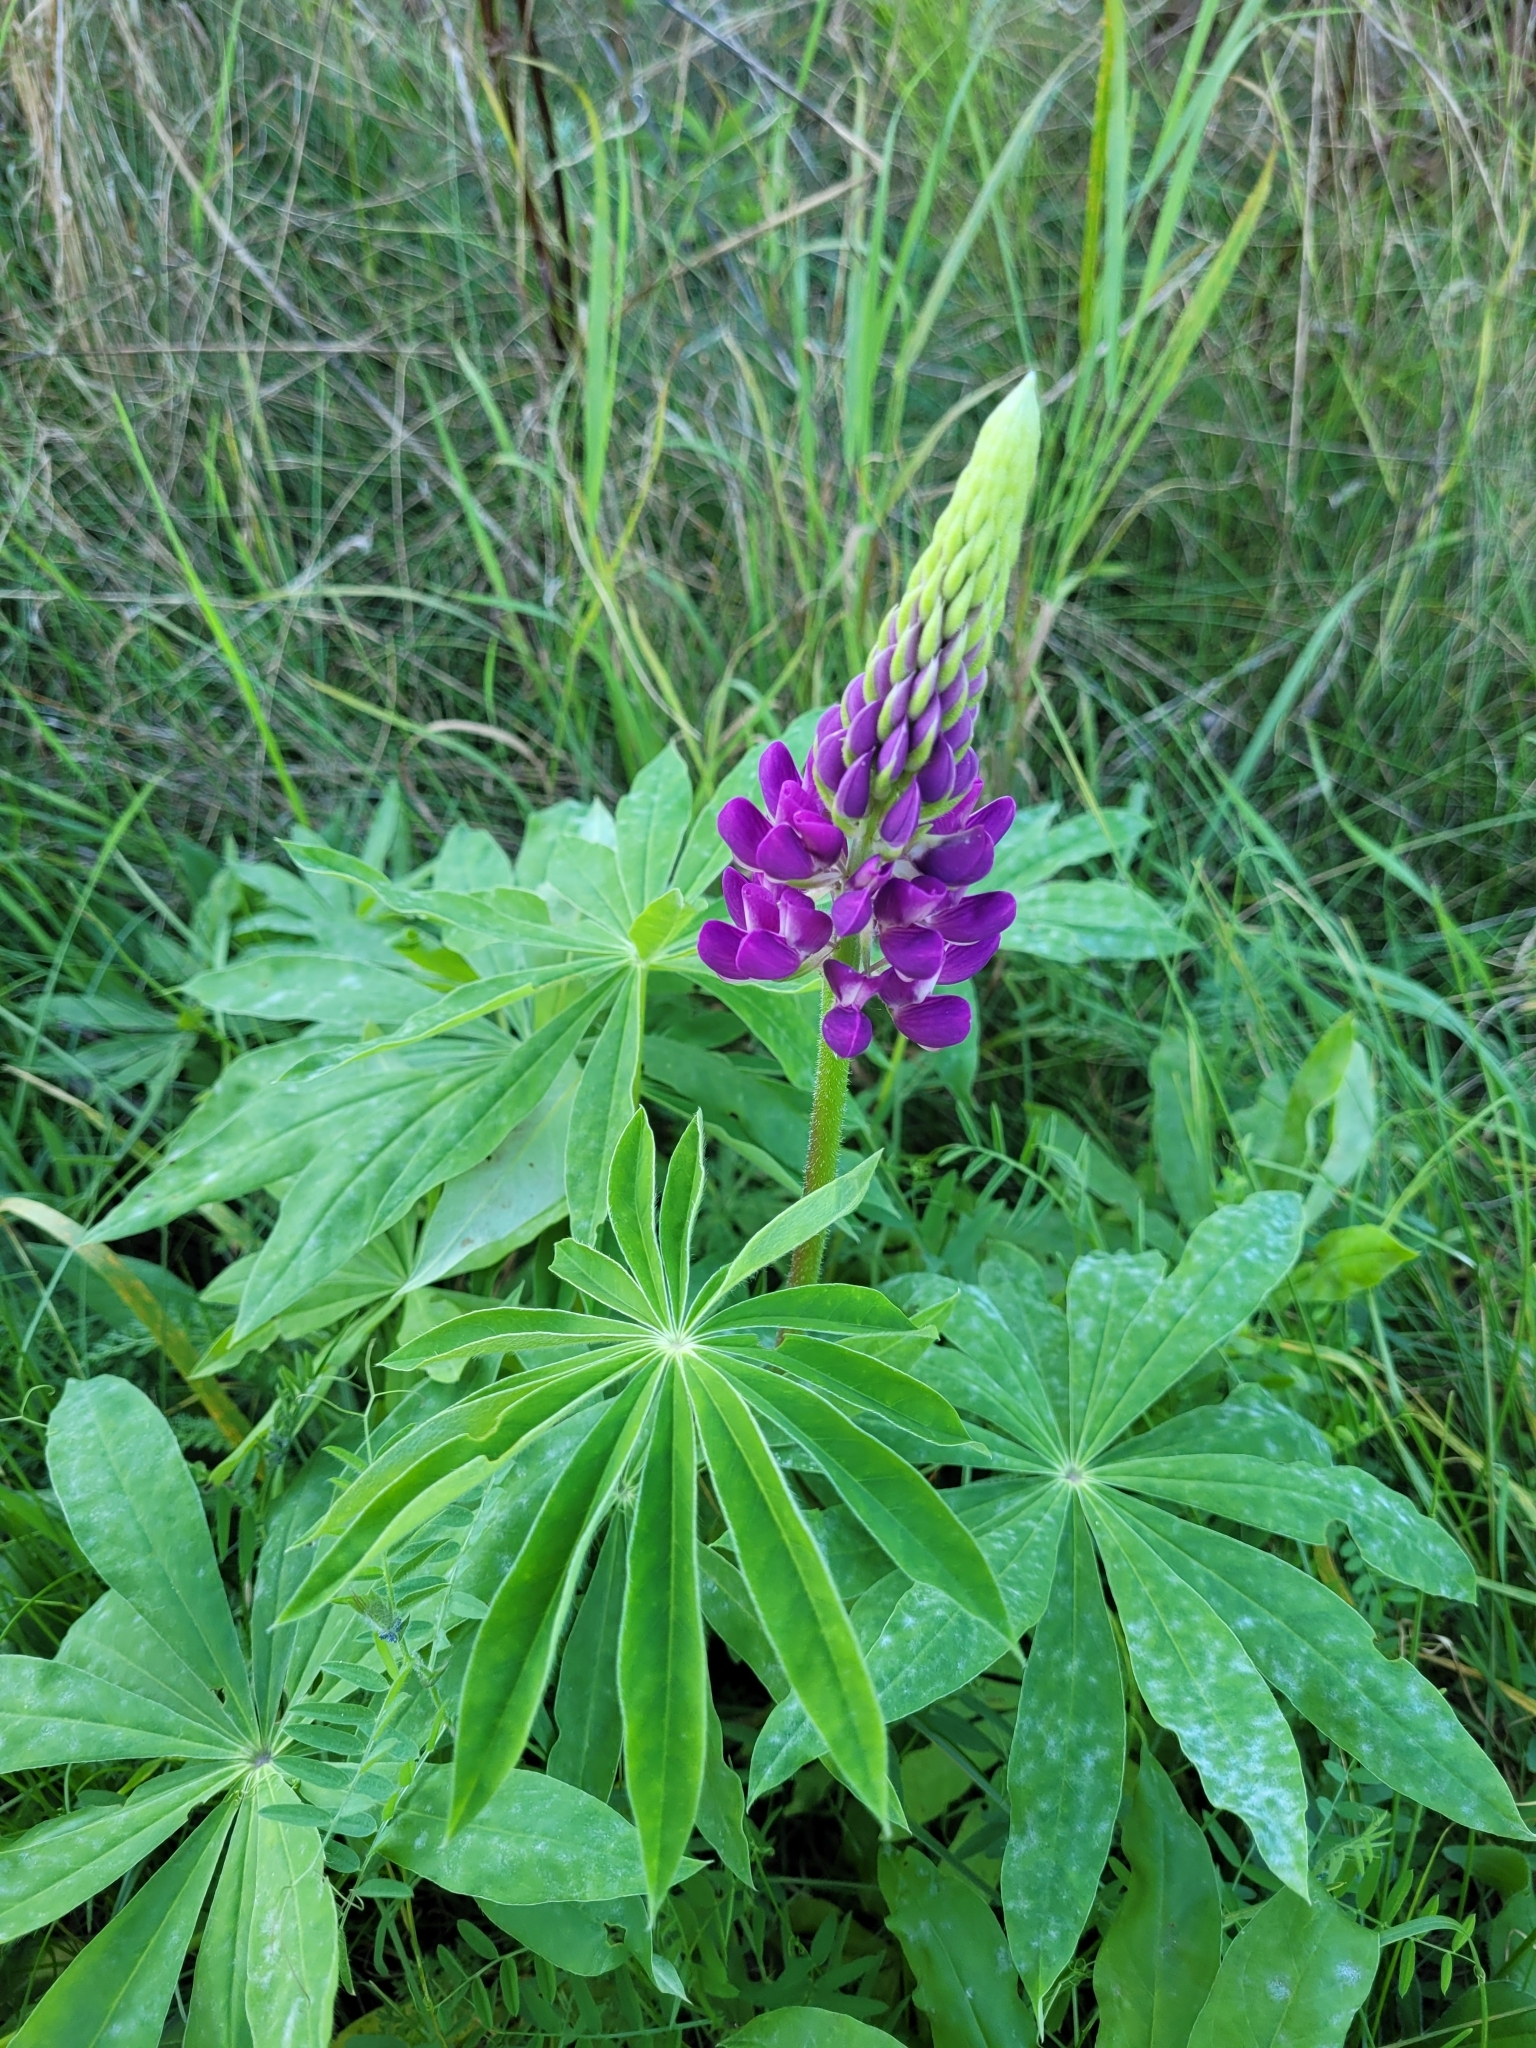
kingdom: Plantae
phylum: Tracheophyta
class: Magnoliopsida
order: Fabales
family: Fabaceae
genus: Lupinus
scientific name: Lupinus polyphyllus
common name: Garden lupin
